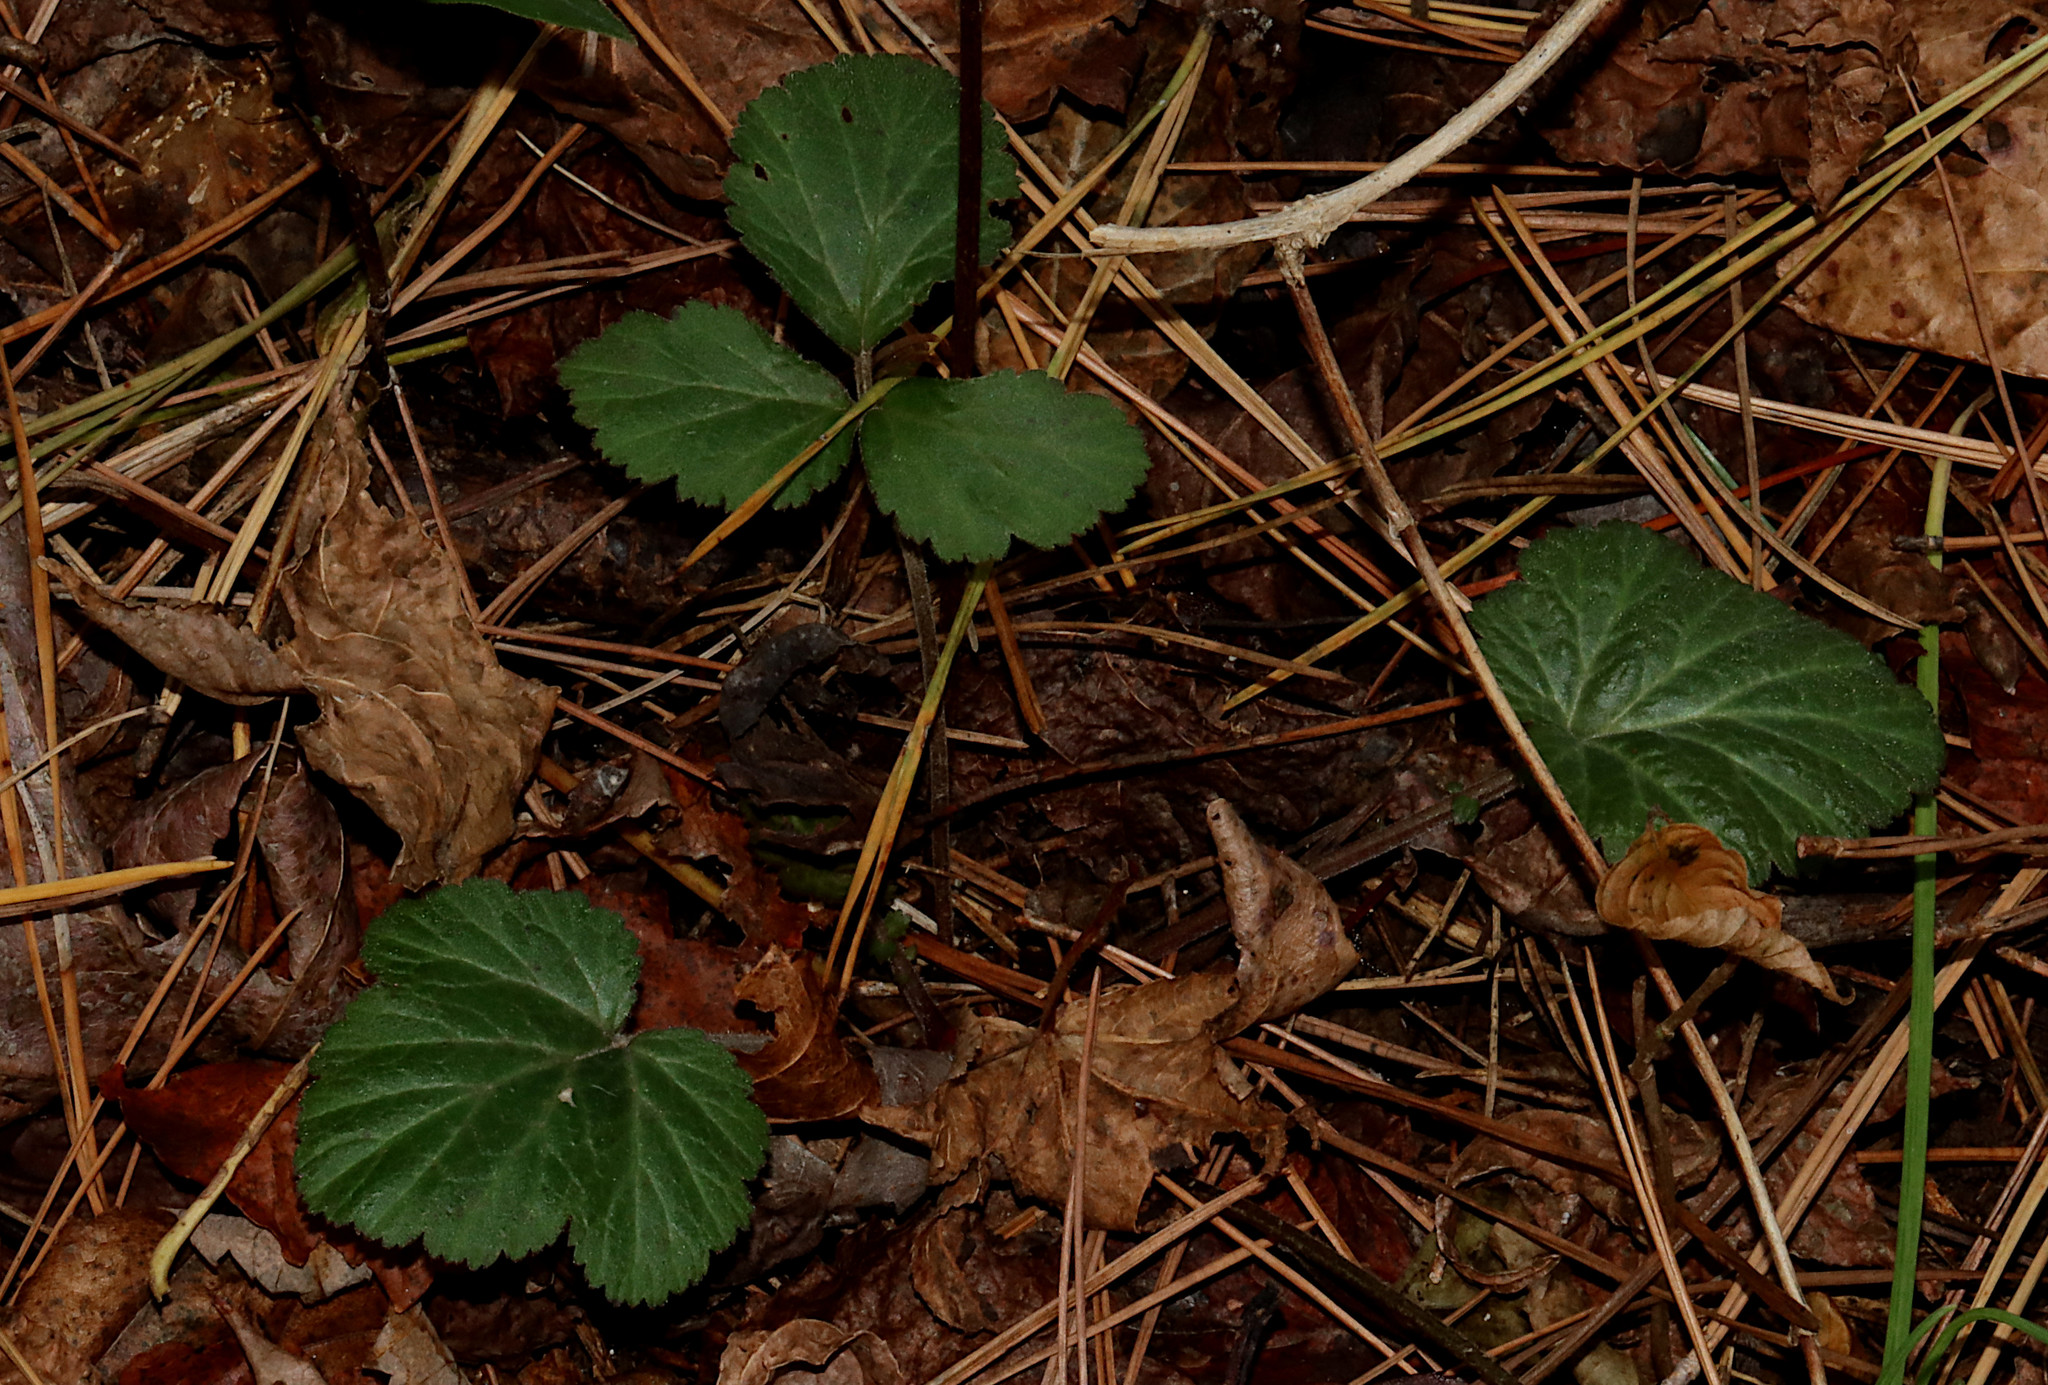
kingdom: Plantae
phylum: Tracheophyta
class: Magnoliopsida
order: Rosales
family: Rosaceae
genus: Geum
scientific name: Geum canadense
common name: White avens
